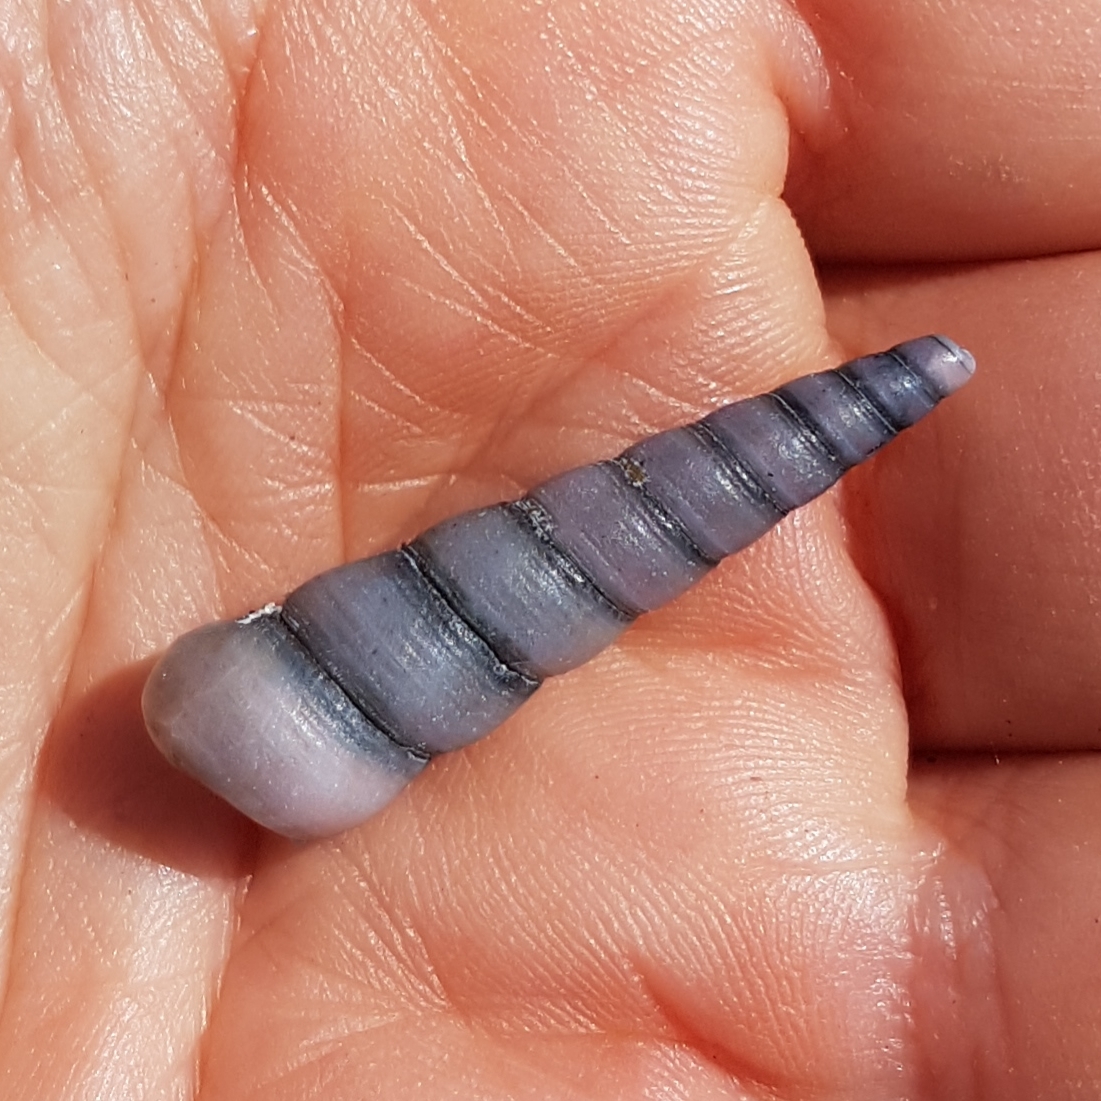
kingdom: Animalia
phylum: Mollusca
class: Gastropoda
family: Turritellidae
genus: Turritellinella
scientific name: Turritellinella tricarinata
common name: Auger shell
